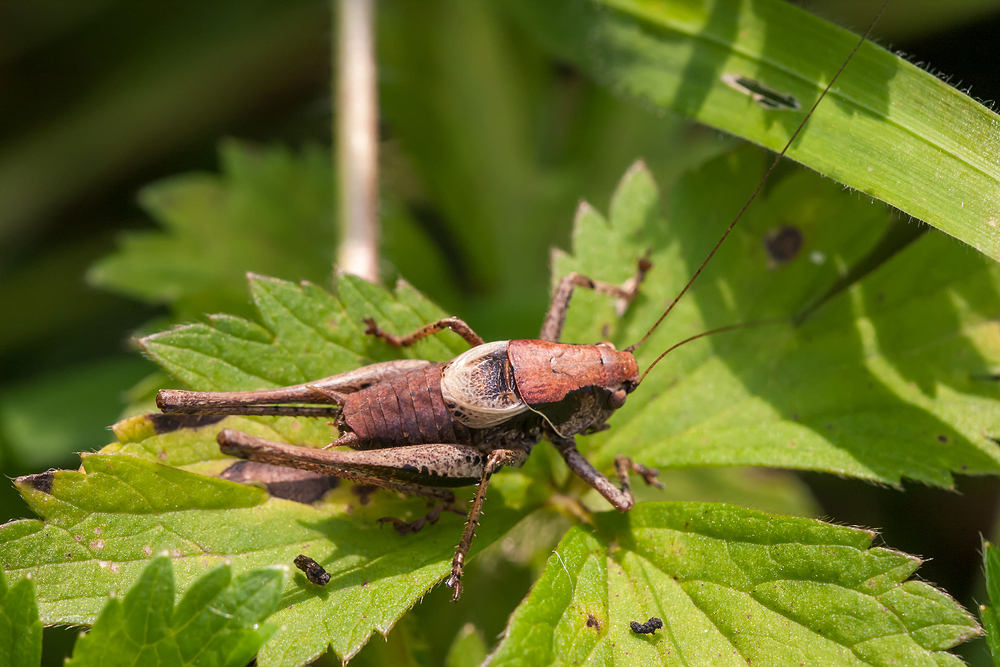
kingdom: Animalia
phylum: Arthropoda
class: Insecta
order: Orthoptera
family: Tettigoniidae
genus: Pholidoptera
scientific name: Pholidoptera griseoaptera
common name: Dark bush-cricket
